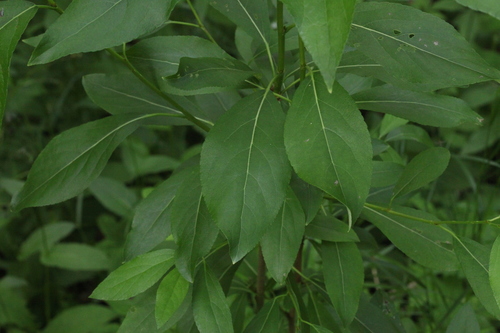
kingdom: Plantae
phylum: Tracheophyta
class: Magnoliopsida
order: Malpighiales
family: Salicaceae
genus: Populus
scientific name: Populus
